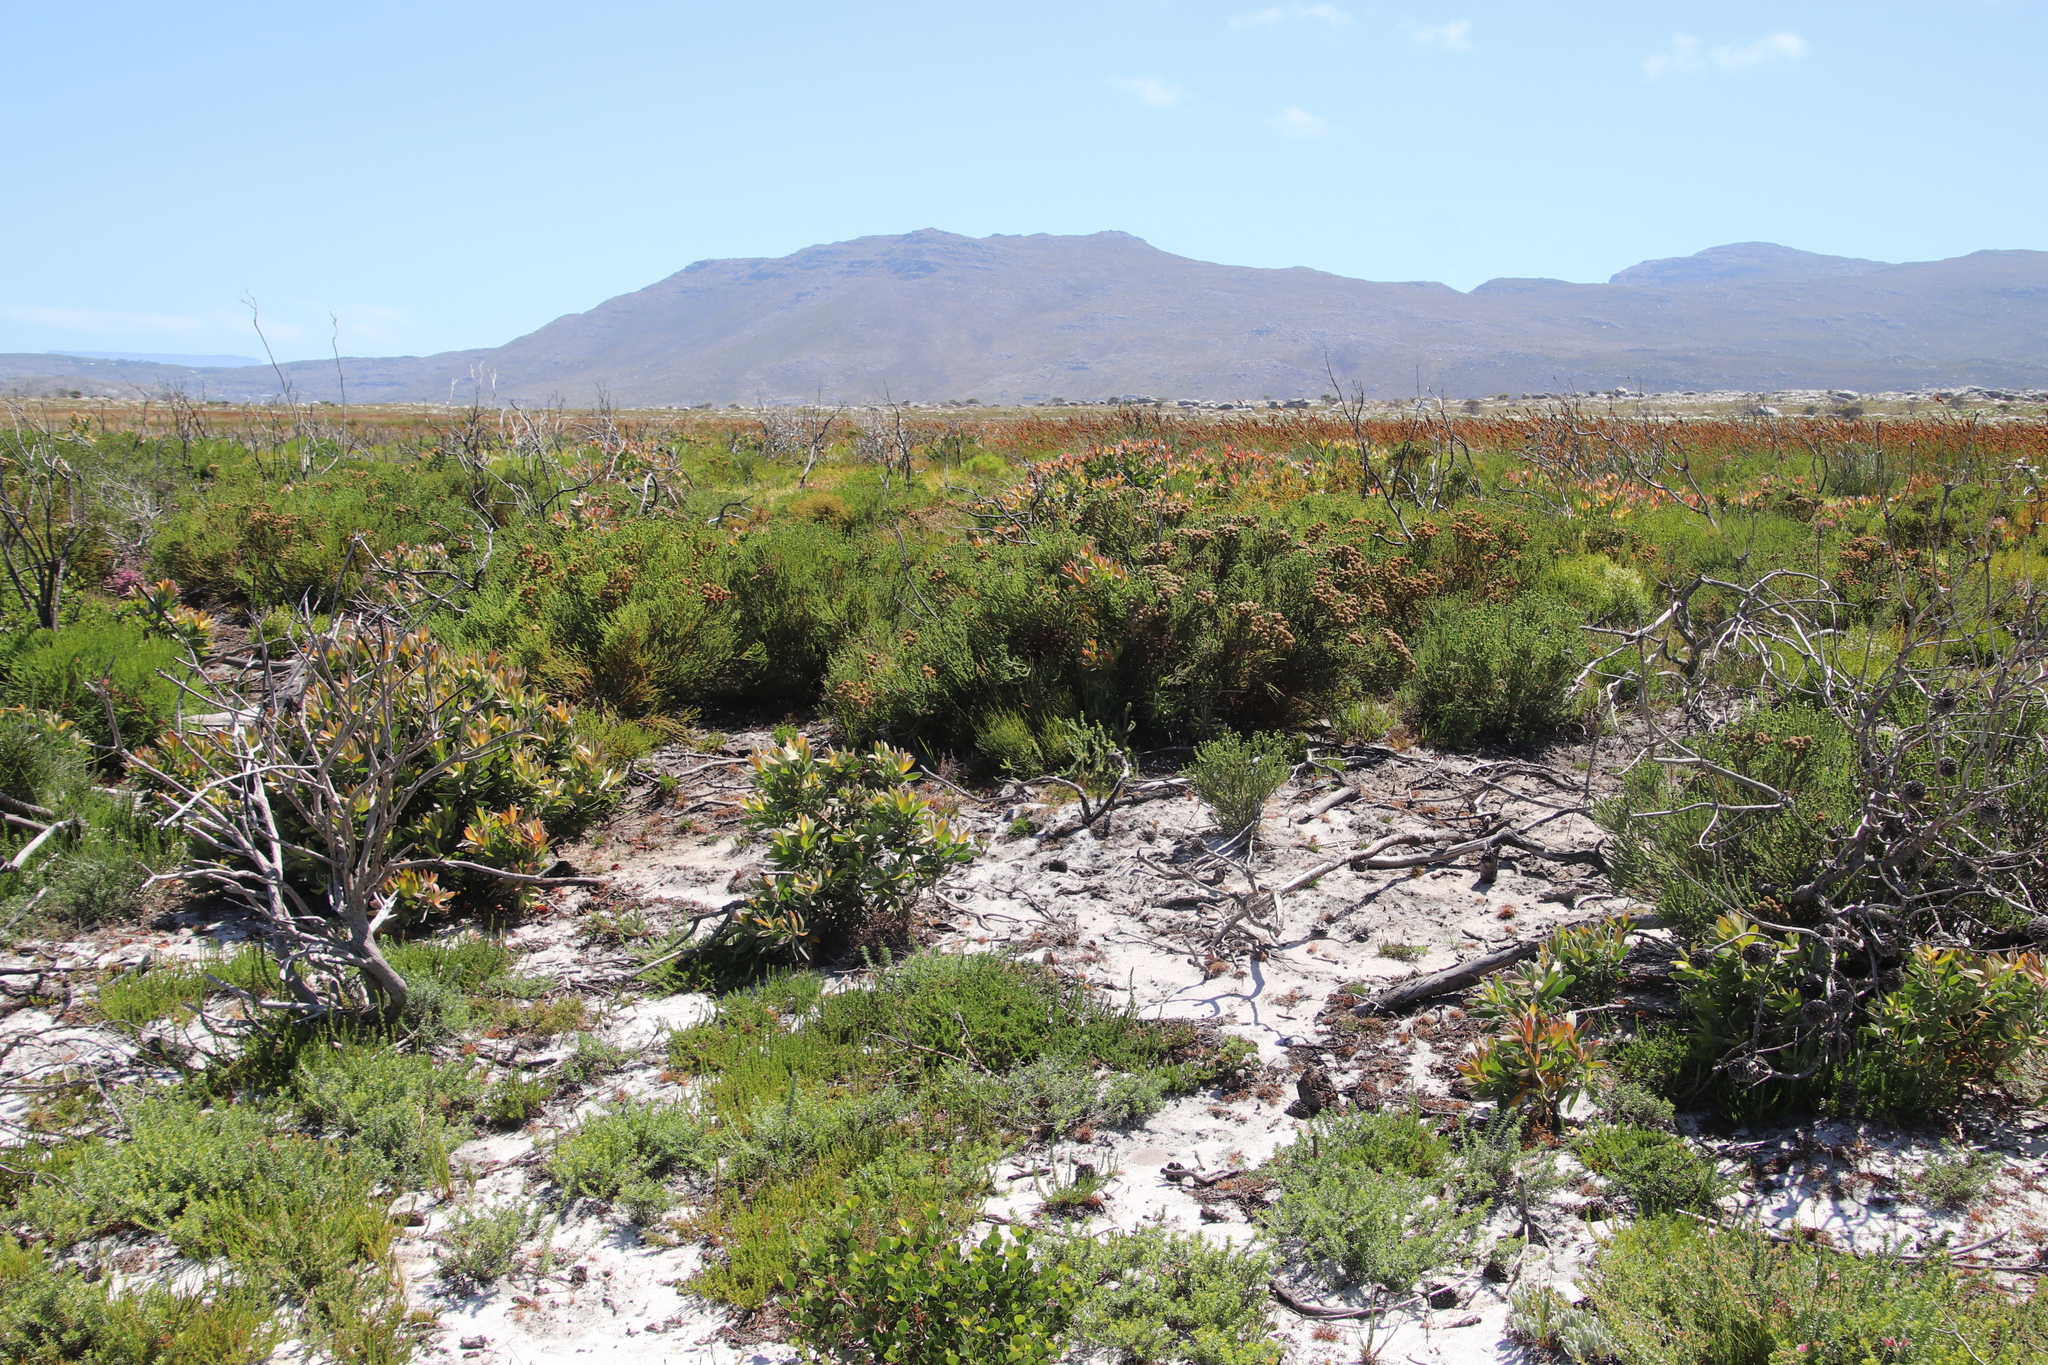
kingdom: Plantae
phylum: Tracheophyta
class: Magnoliopsida
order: Bruniales
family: Bruniaceae
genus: Berzelia
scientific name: Berzelia abrotanoides
